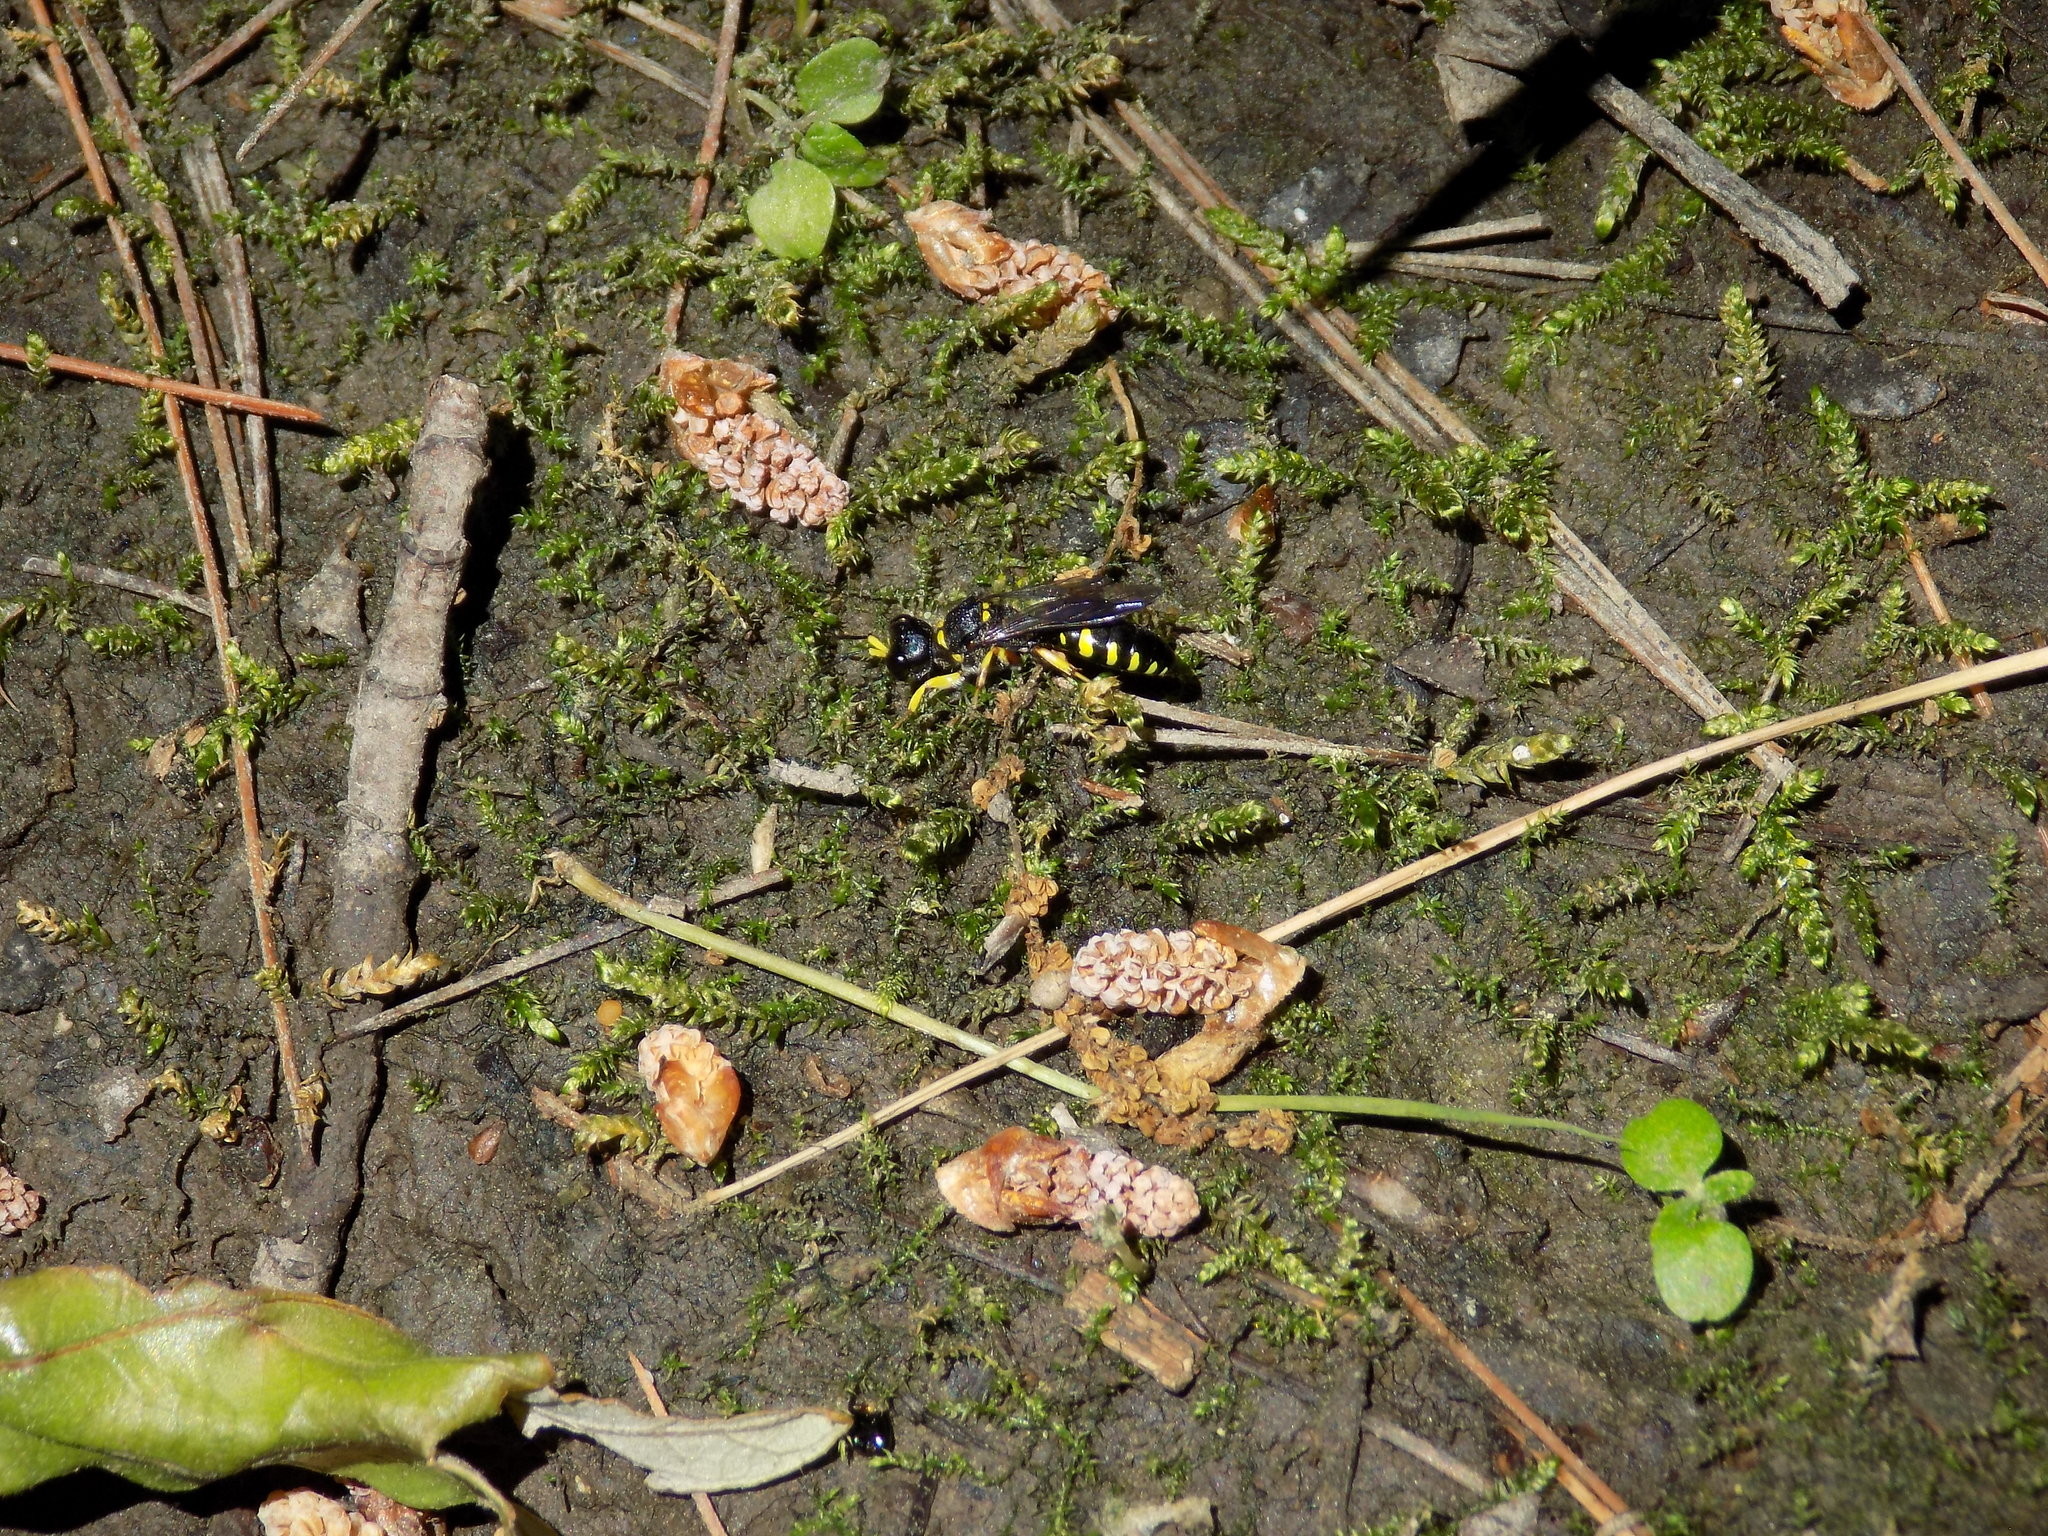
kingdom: Animalia
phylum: Arthropoda
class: Insecta
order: Hymenoptera
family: Crabronidae
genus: Ectemnius
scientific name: Ectemnius maculosus
